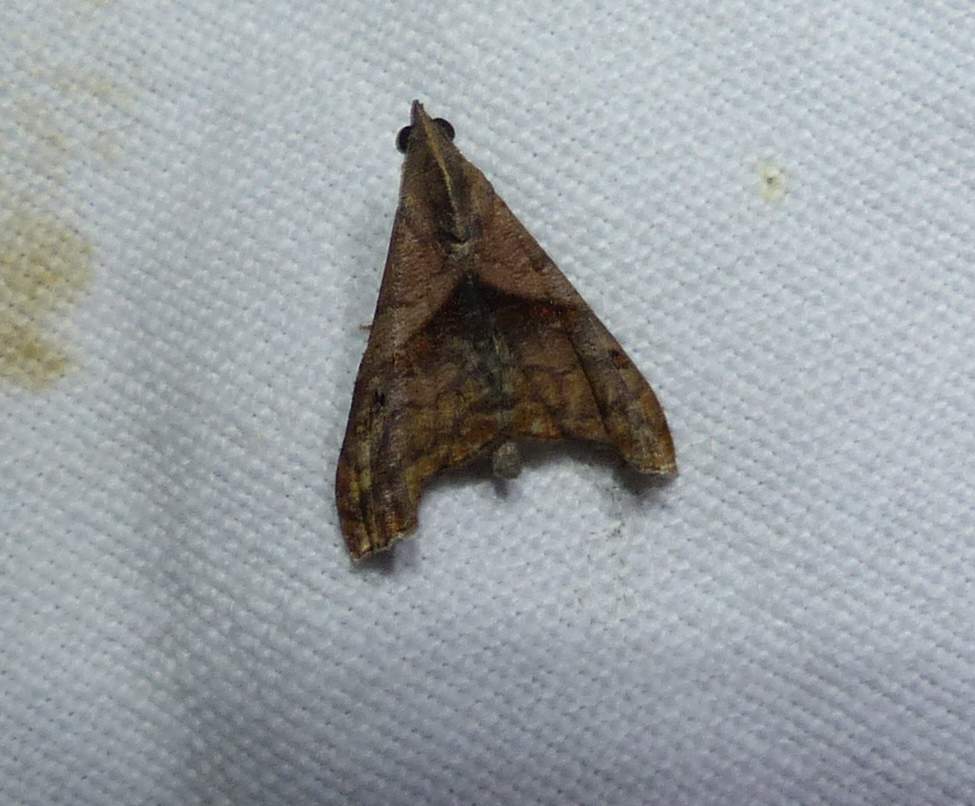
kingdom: Animalia
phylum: Arthropoda
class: Insecta
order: Lepidoptera
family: Erebidae
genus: Palthis
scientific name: Palthis angulalis
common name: Dark-spotted palthis moth
